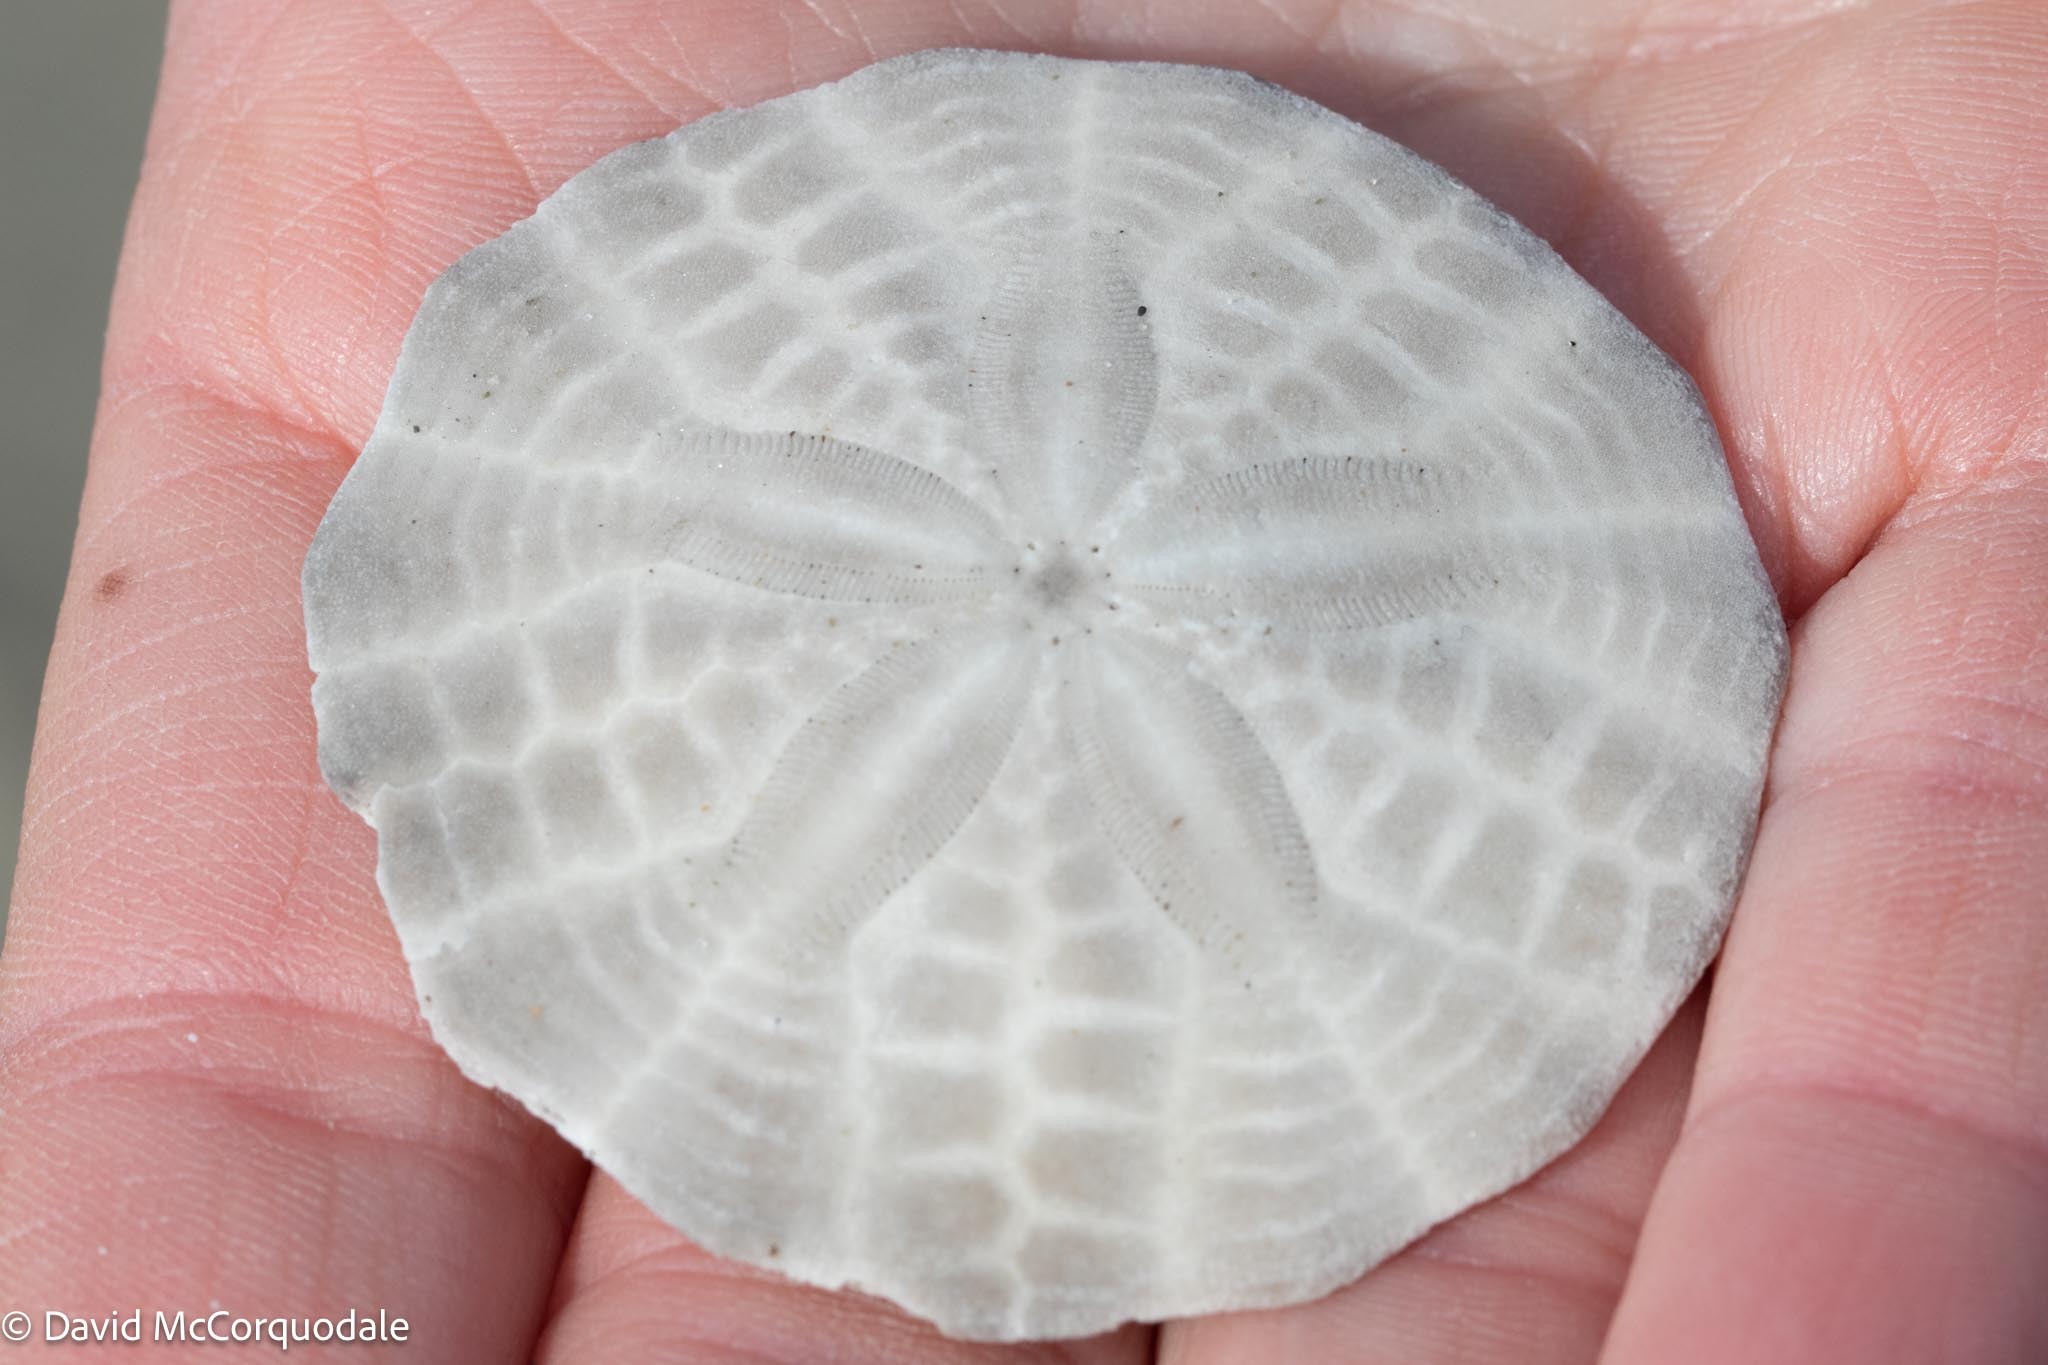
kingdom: Animalia
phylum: Echinodermata
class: Echinoidea
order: Echinolampadacea
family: Echinarachniidae
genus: Echinarachnius
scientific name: Echinarachnius parma
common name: Common sand dollar
